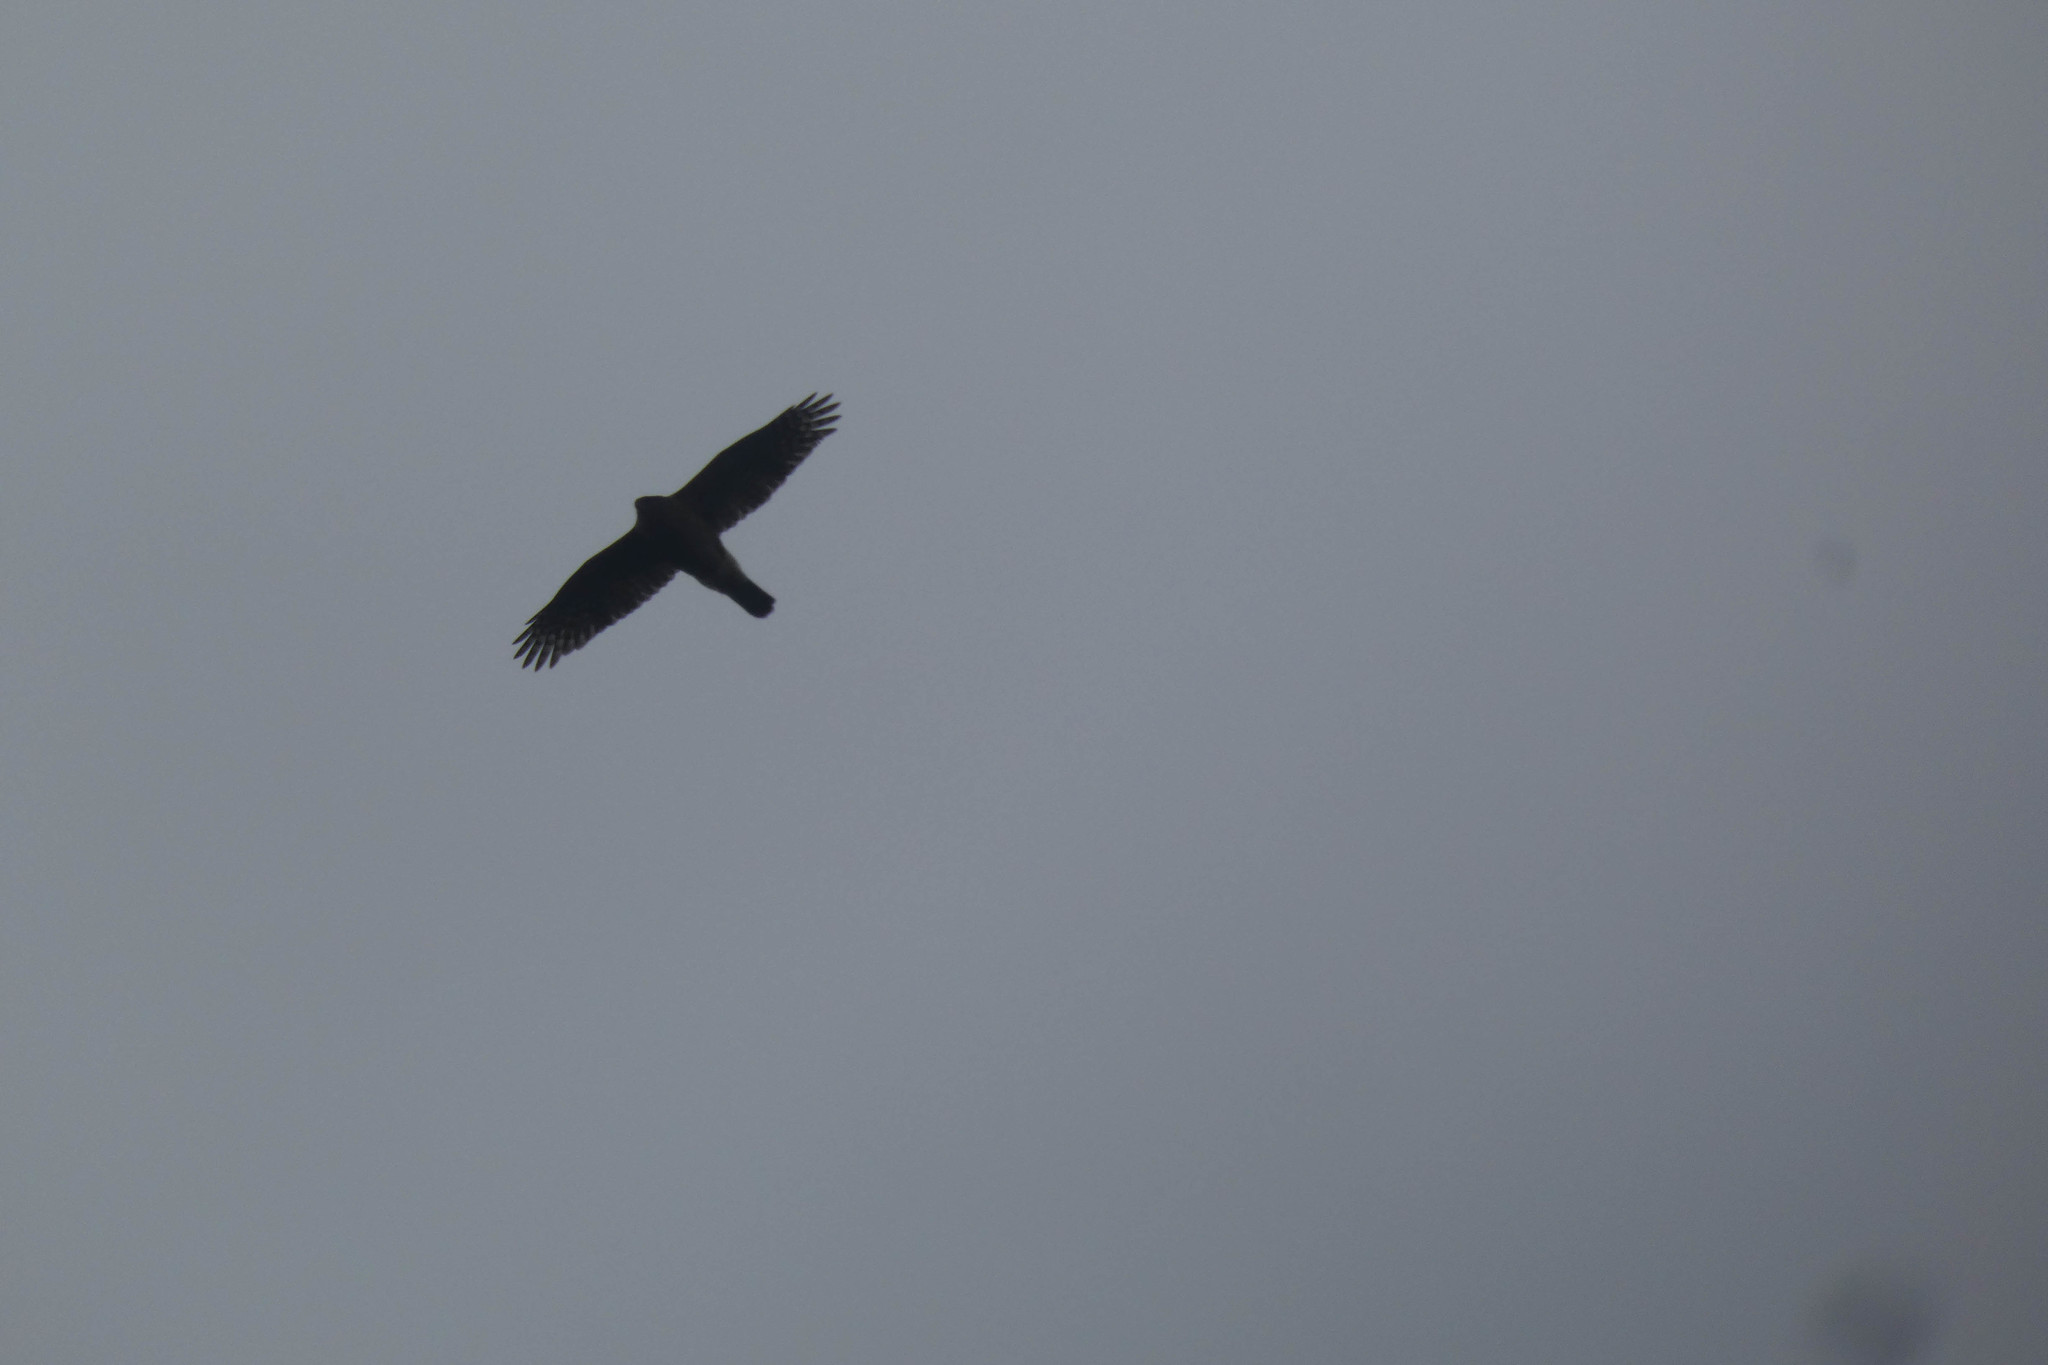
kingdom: Animalia
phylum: Chordata
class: Aves
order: Accipitriformes
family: Accipitridae
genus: Accipiter
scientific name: Accipiter cooperii
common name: Cooper's hawk
